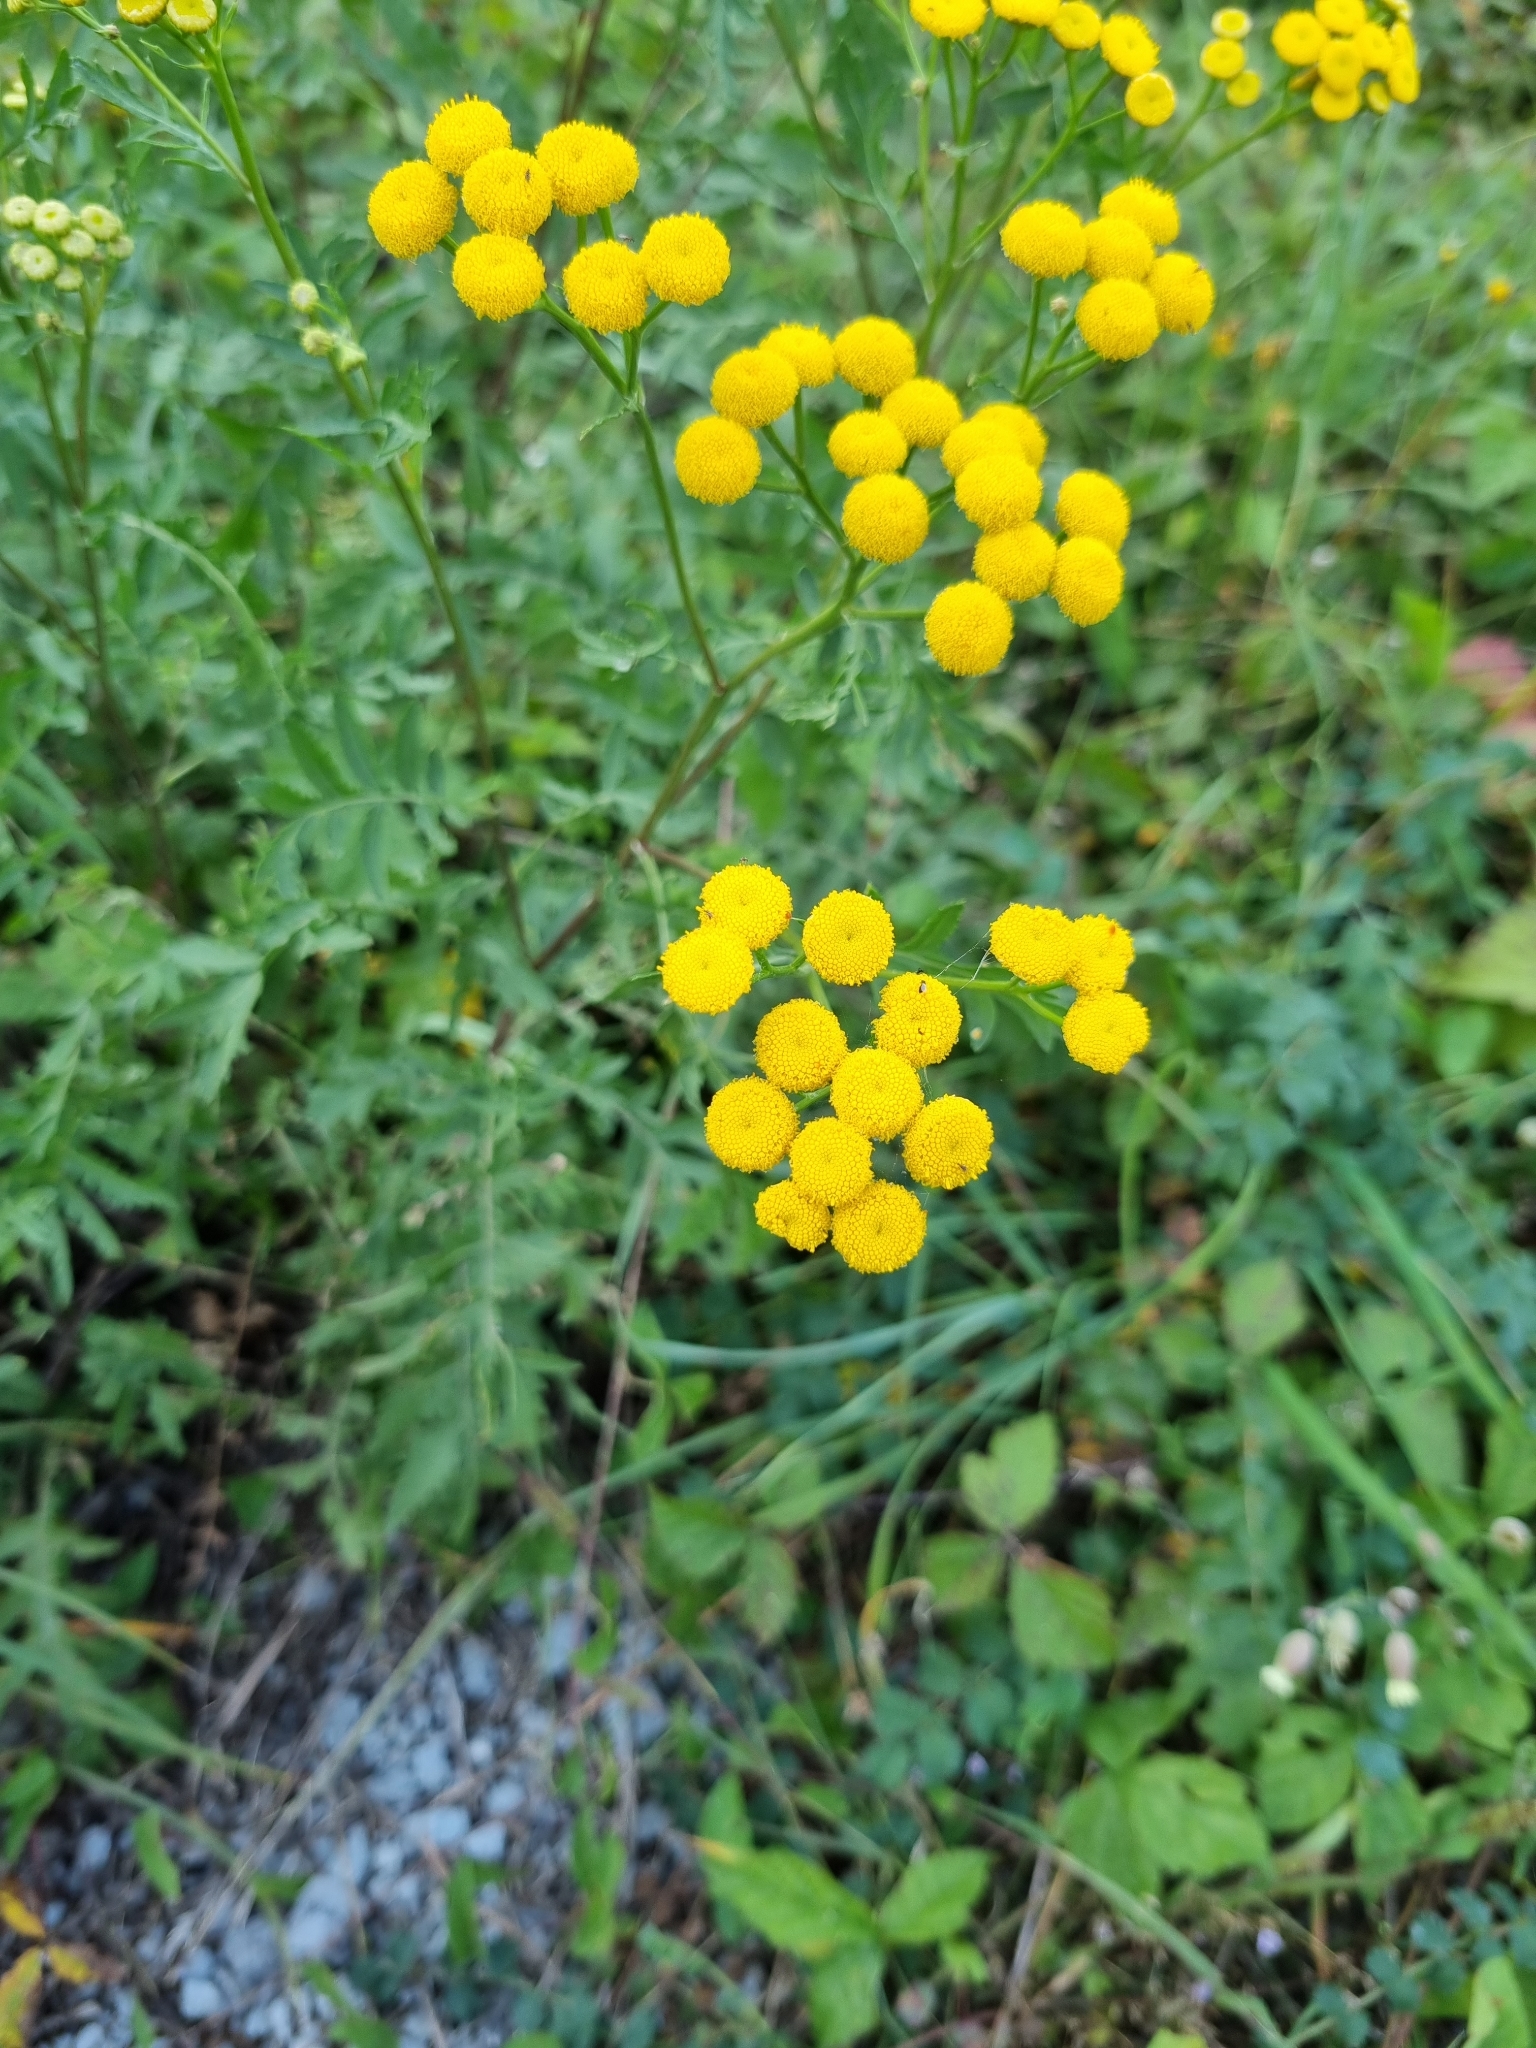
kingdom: Plantae
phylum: Tracheophyta
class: Magnoliopsida
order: Asterales
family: Asteraceae
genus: Tanacetum
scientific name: Tanacetum vulgare
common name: Common tansy
